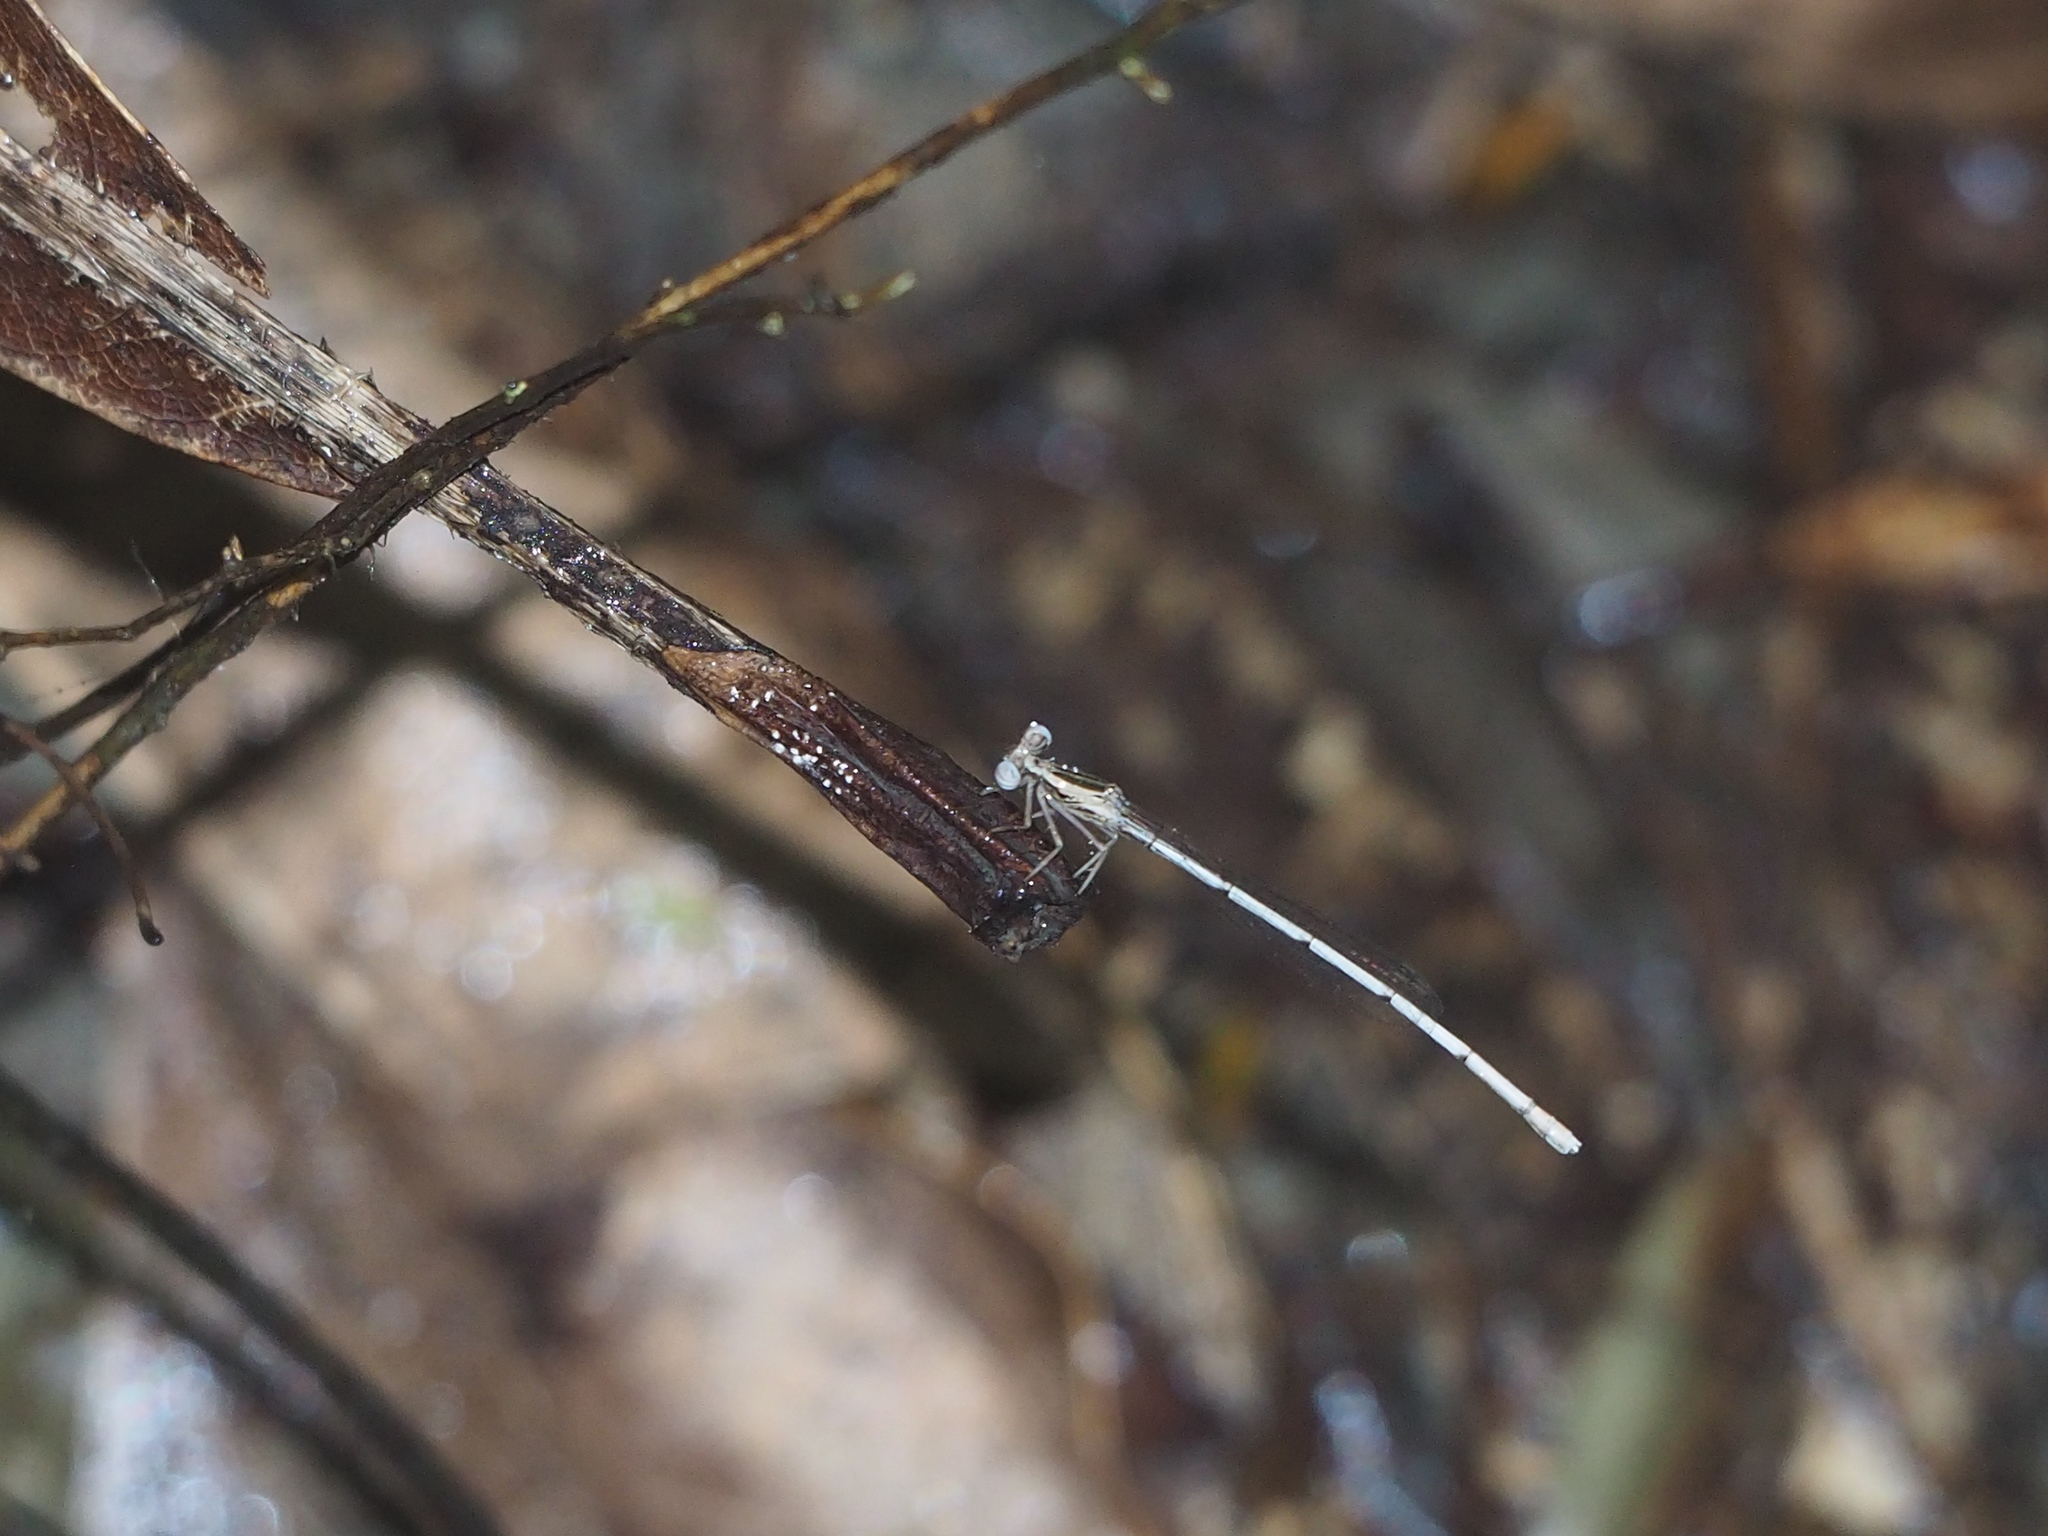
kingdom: Animalia
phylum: Arthropoda
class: Insecta
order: Odonata
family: Platycnemididae
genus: Copera
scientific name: Copera marginipes
